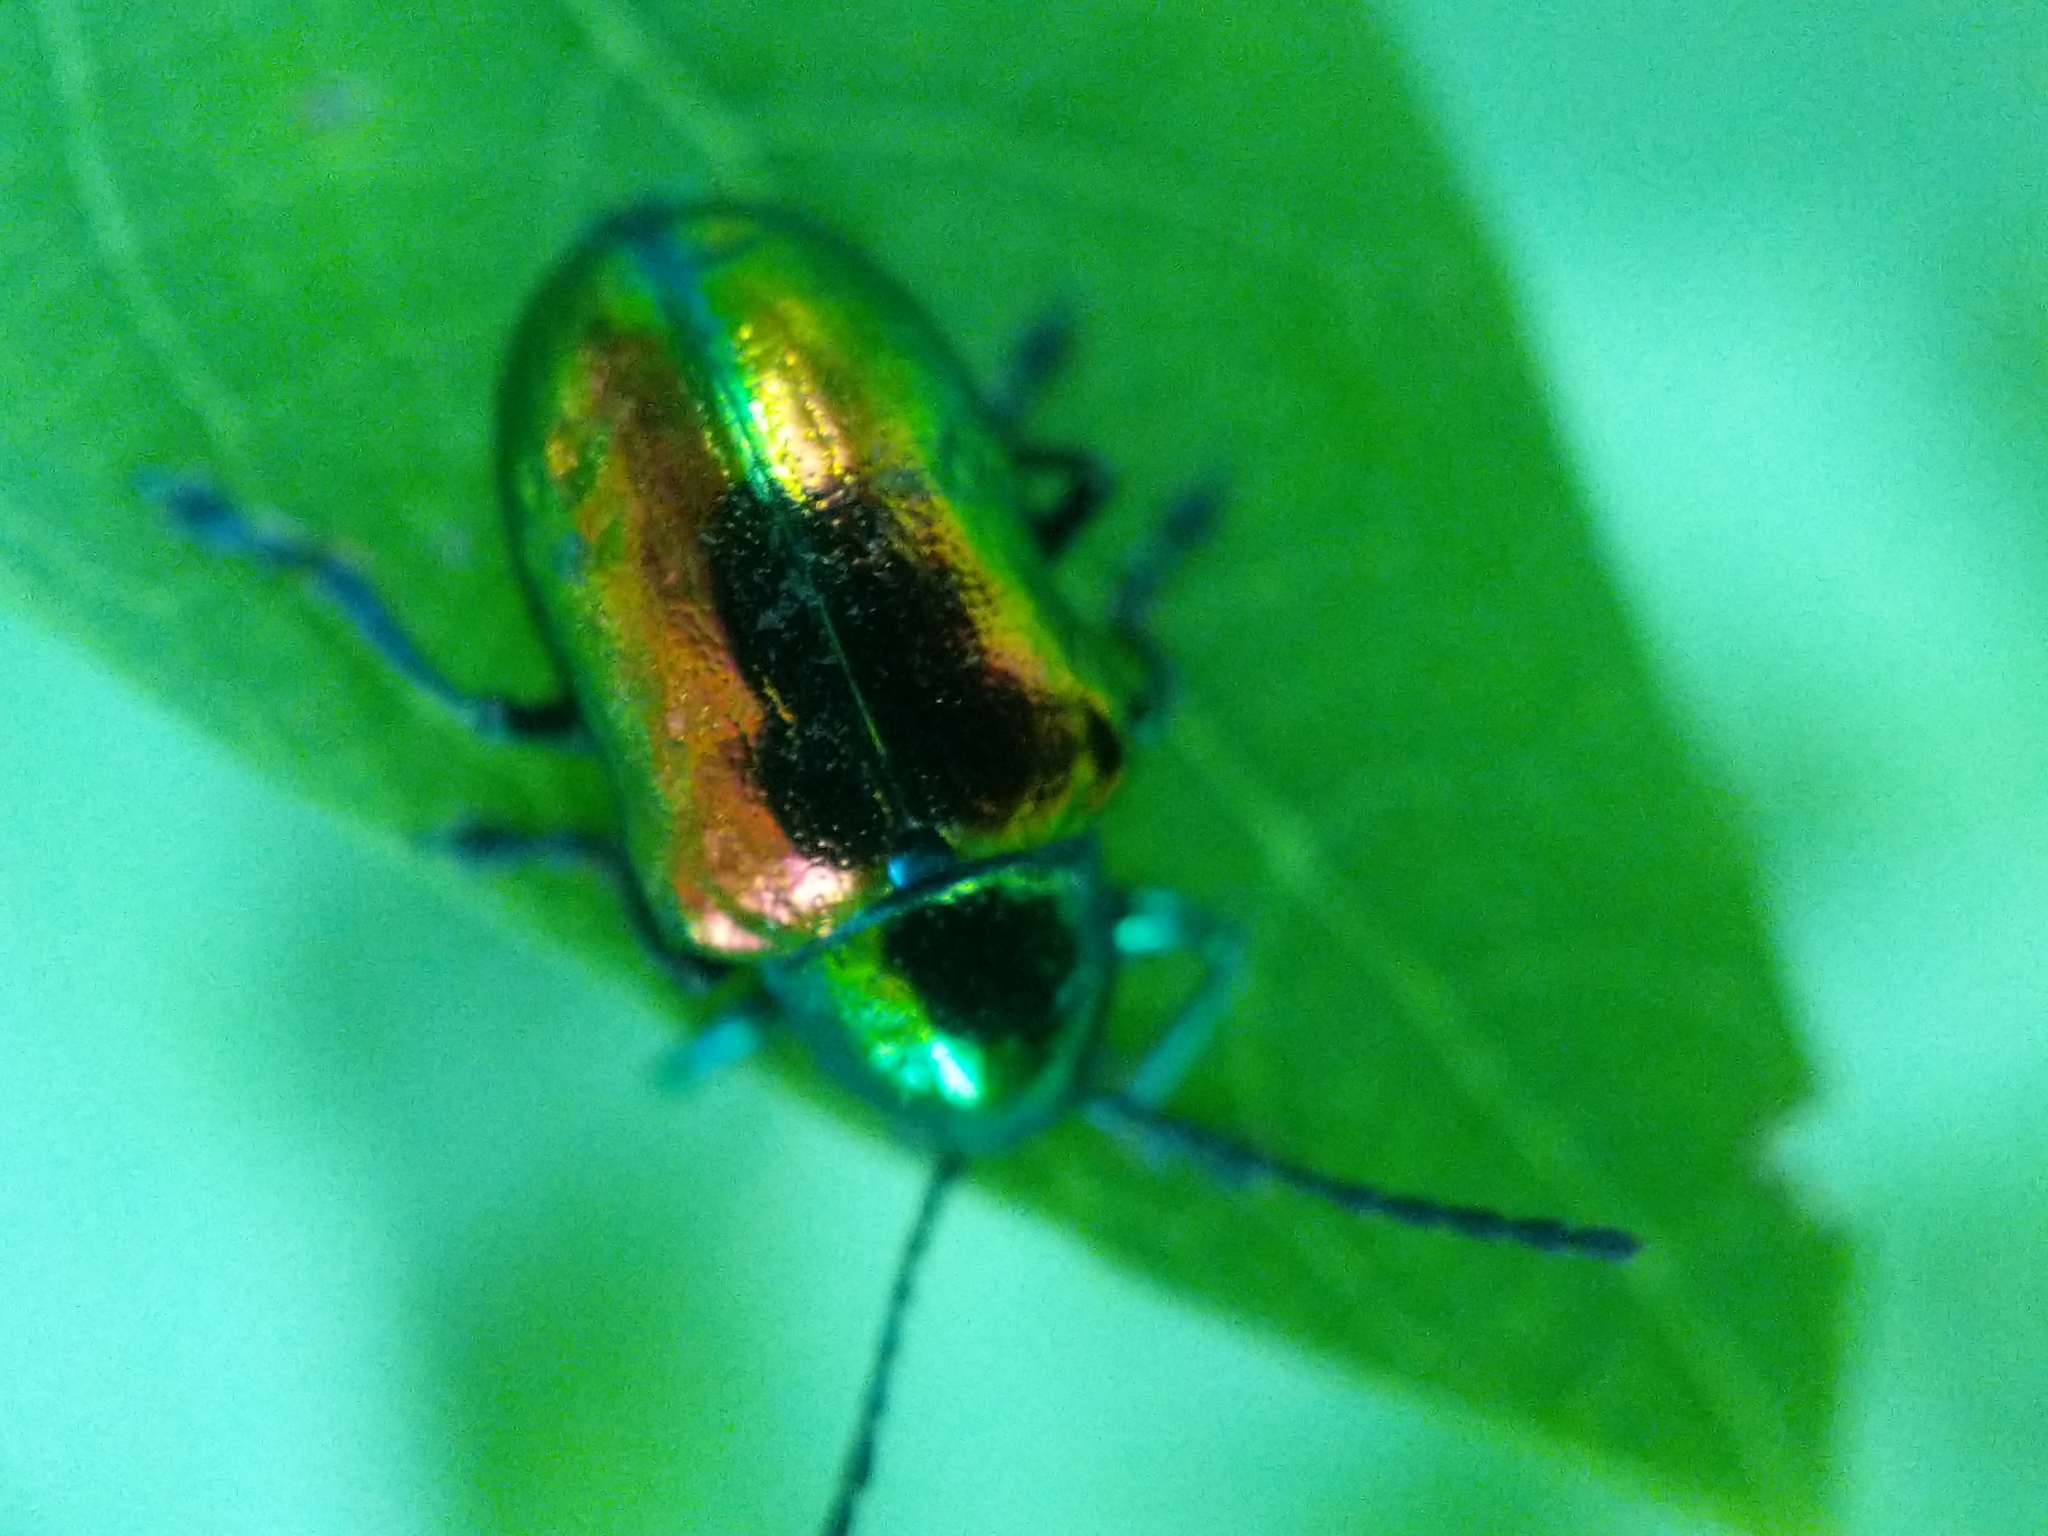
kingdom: Animalia
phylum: Arthropoda
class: Insecta
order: Coleoptera
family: Chrysomelidae
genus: Chrysochus
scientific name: Chrysochus auratus
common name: Dogbane leaf beetle
